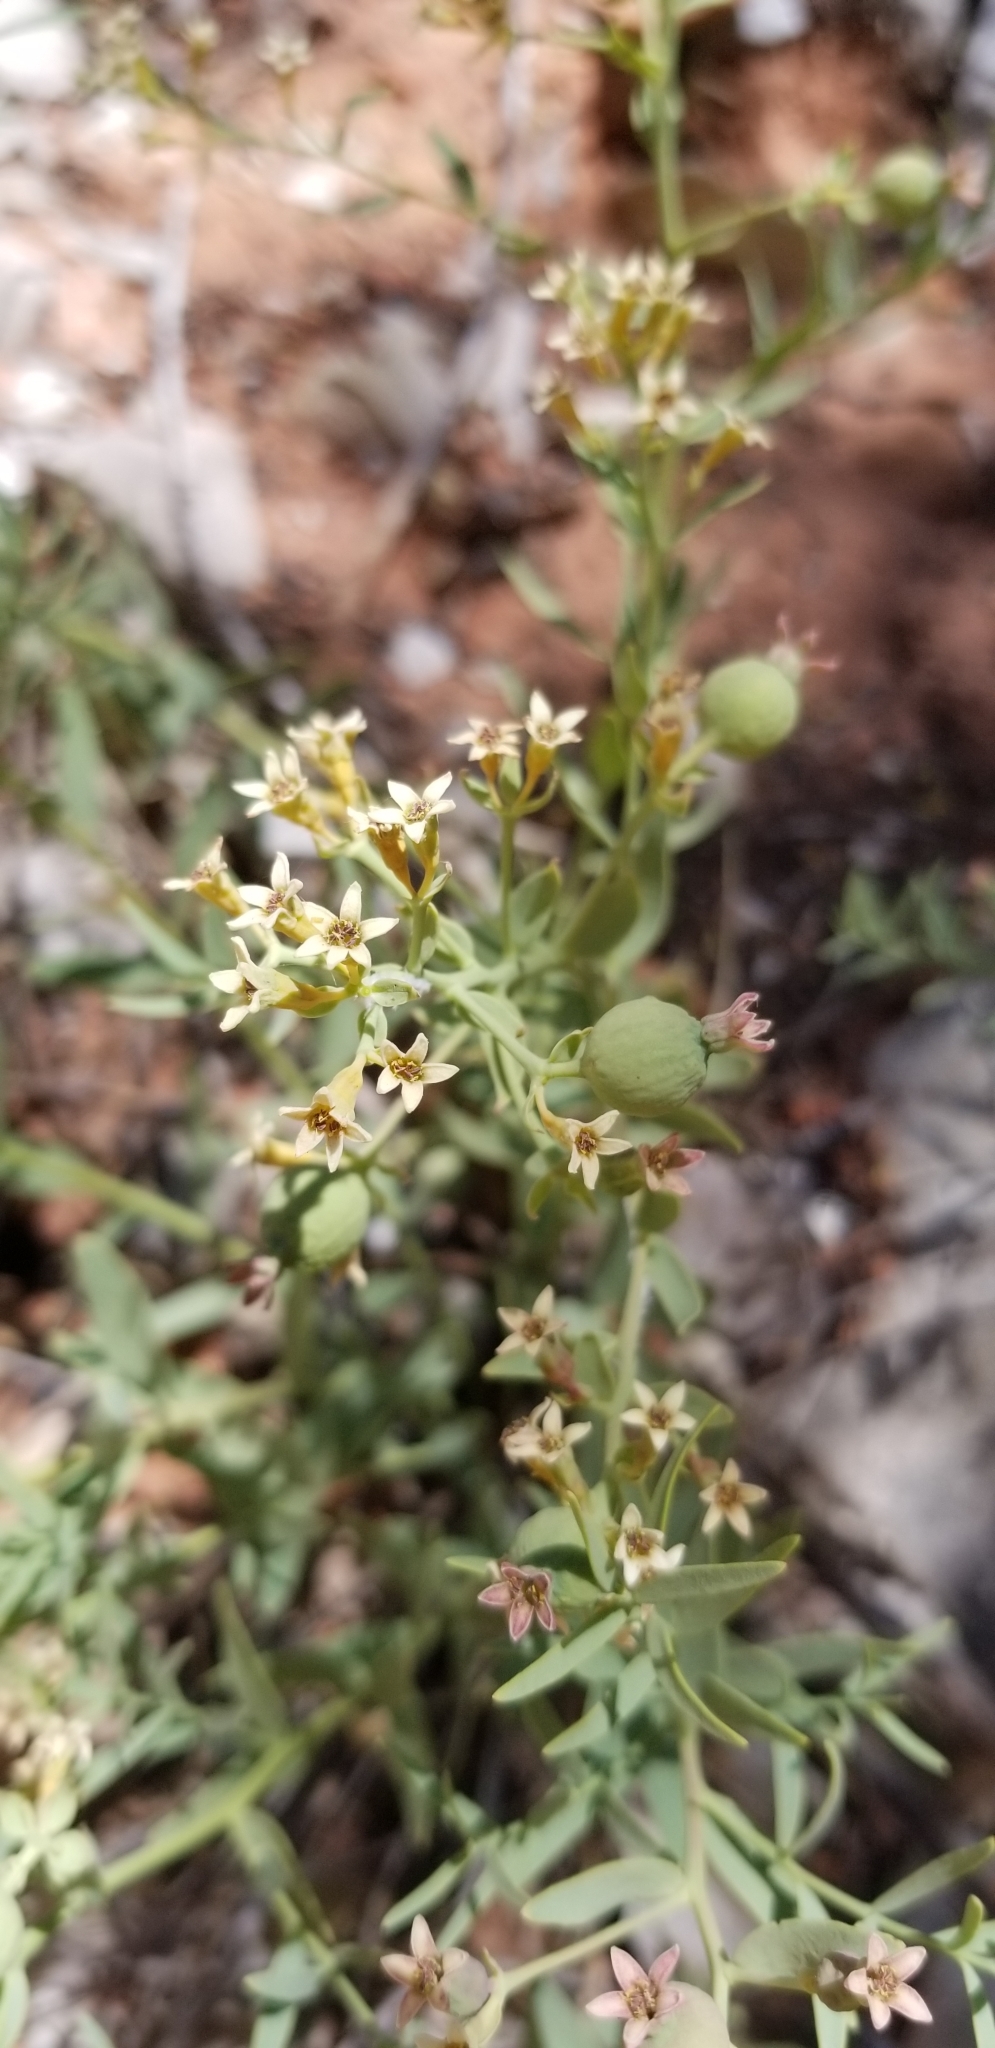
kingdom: Plantae
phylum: Tracheophyta
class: Magnoliopsida
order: Santalales
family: Comandraceae
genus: Comandra
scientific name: Comandra umbellata
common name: Bastard toadflax
